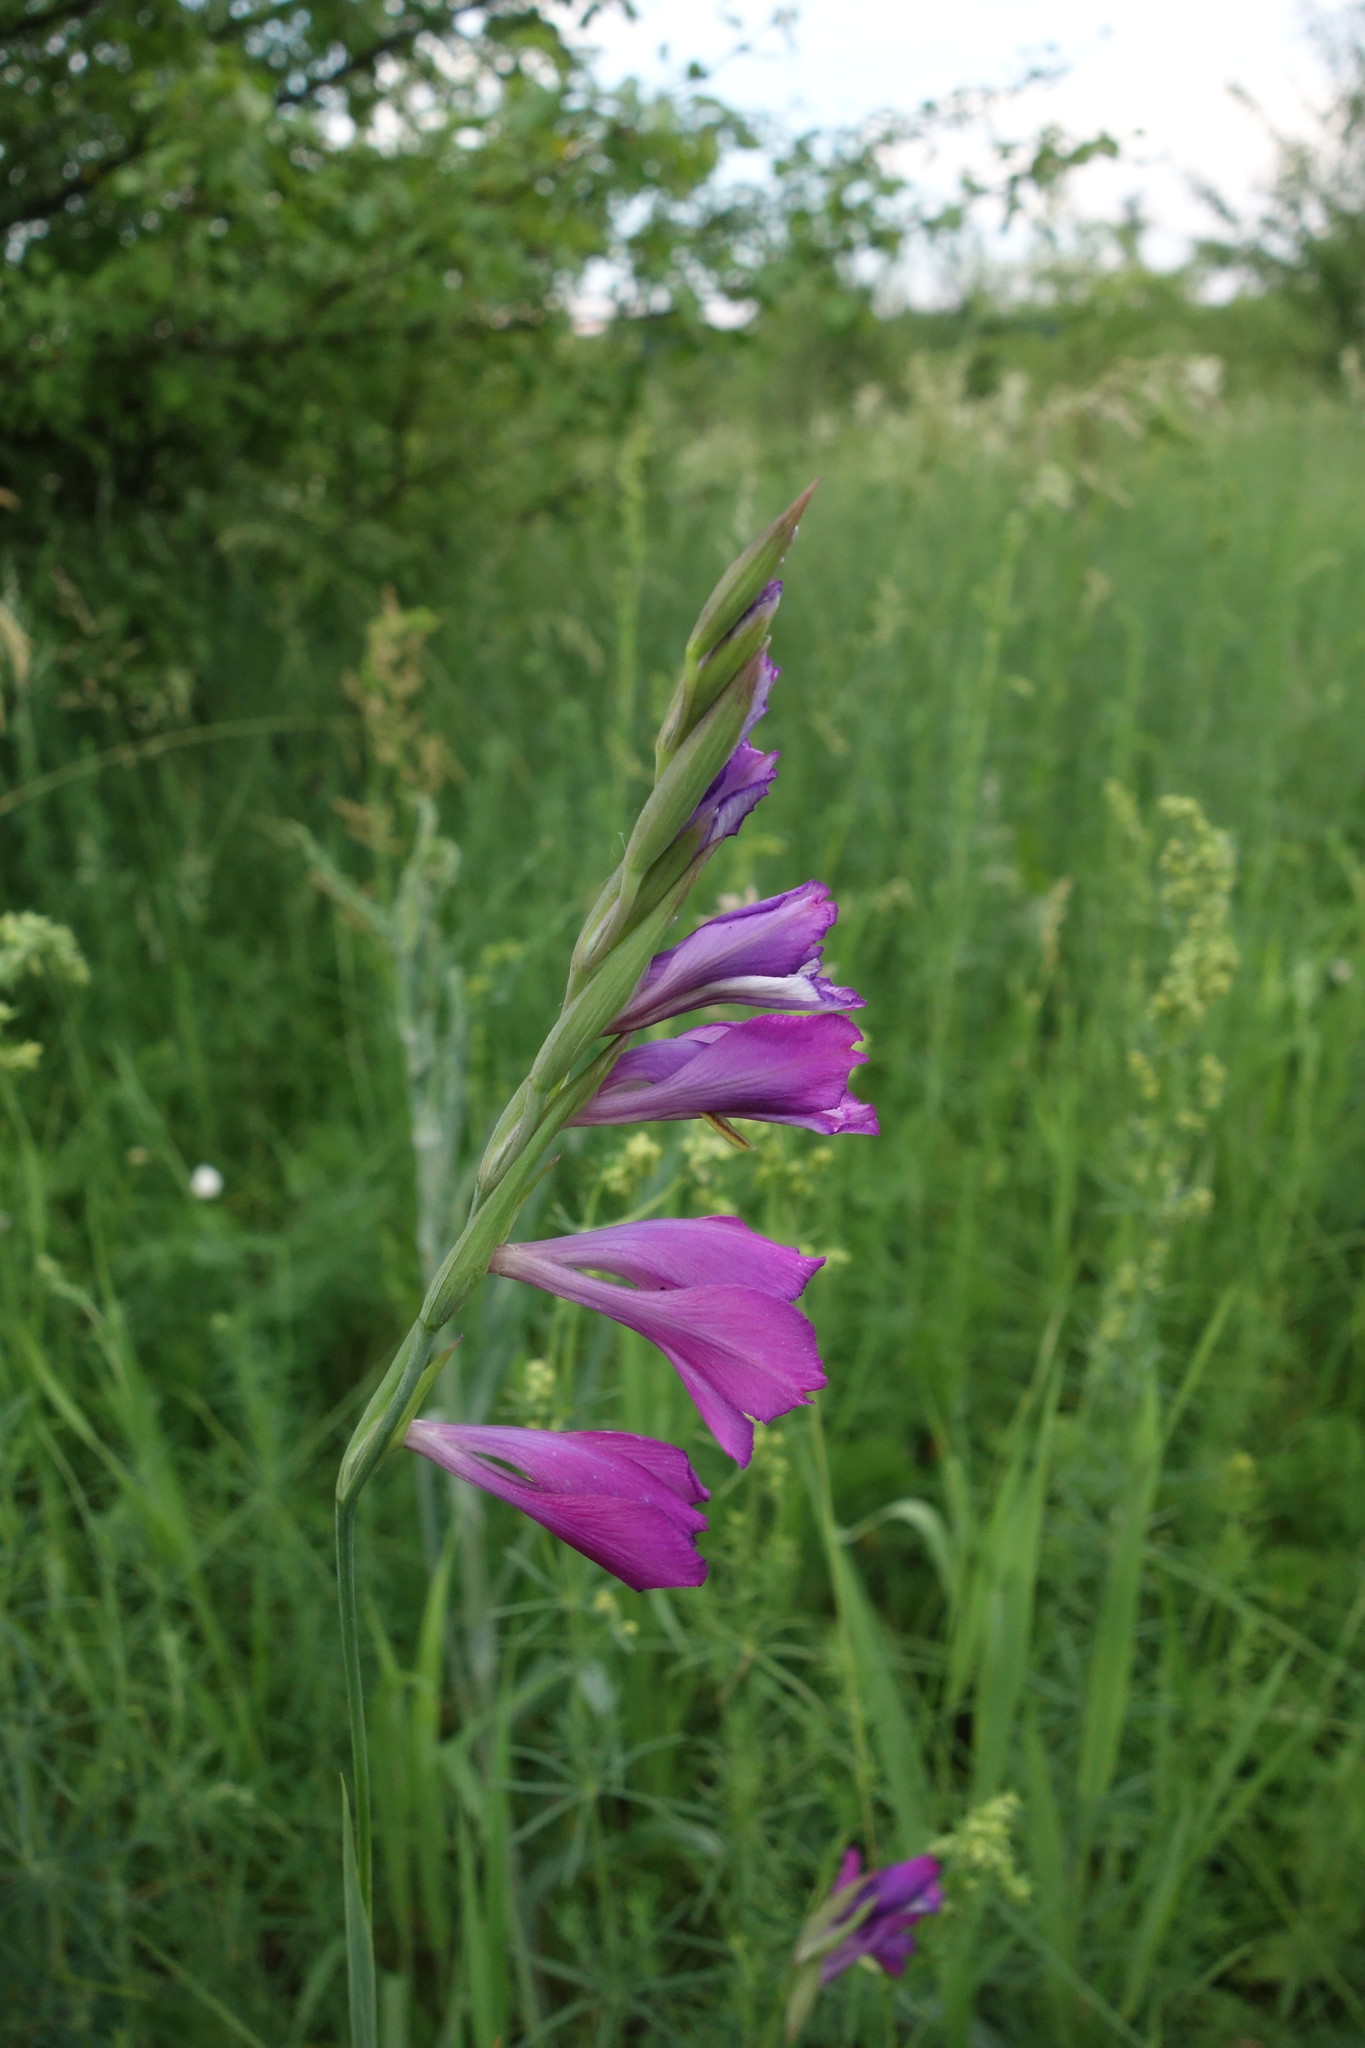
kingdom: Plantae
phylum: Tracheophyta
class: Liliopsida
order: Asparagales
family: Iridaceae
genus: Gladiolus
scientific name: Gladiolus tenuis
